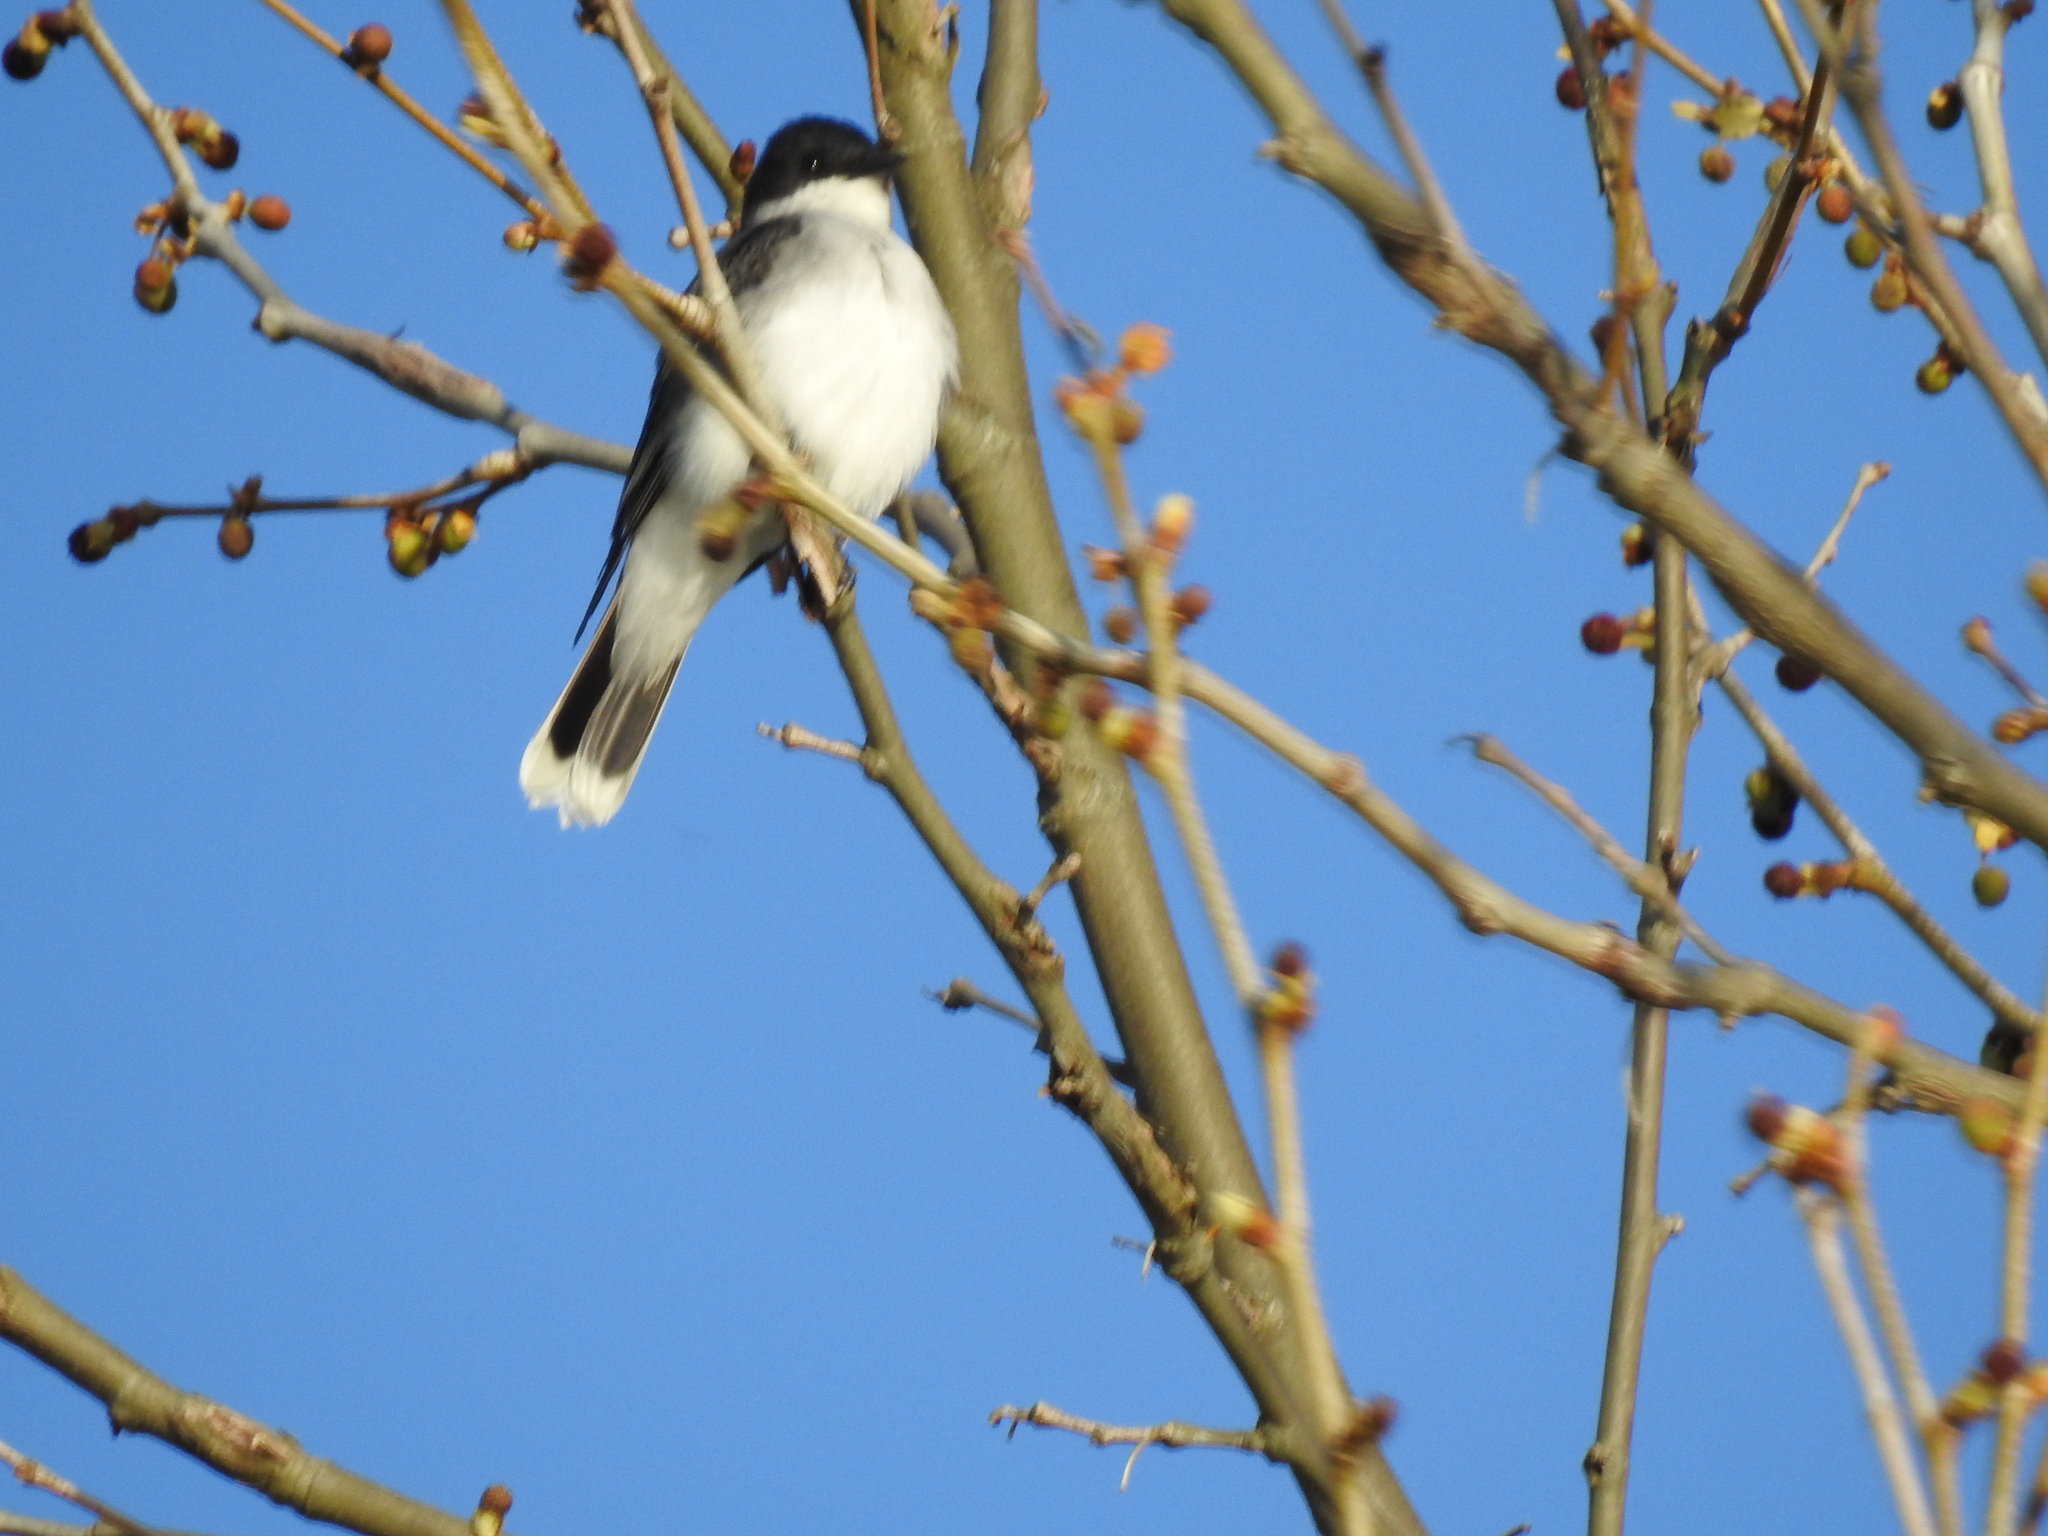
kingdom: Animalia
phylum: Chordata
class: Aves
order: Passeriformes
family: Tyrannidae
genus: Tyrannus
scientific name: Tyrannus tyrannus
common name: Eastern kingbird
